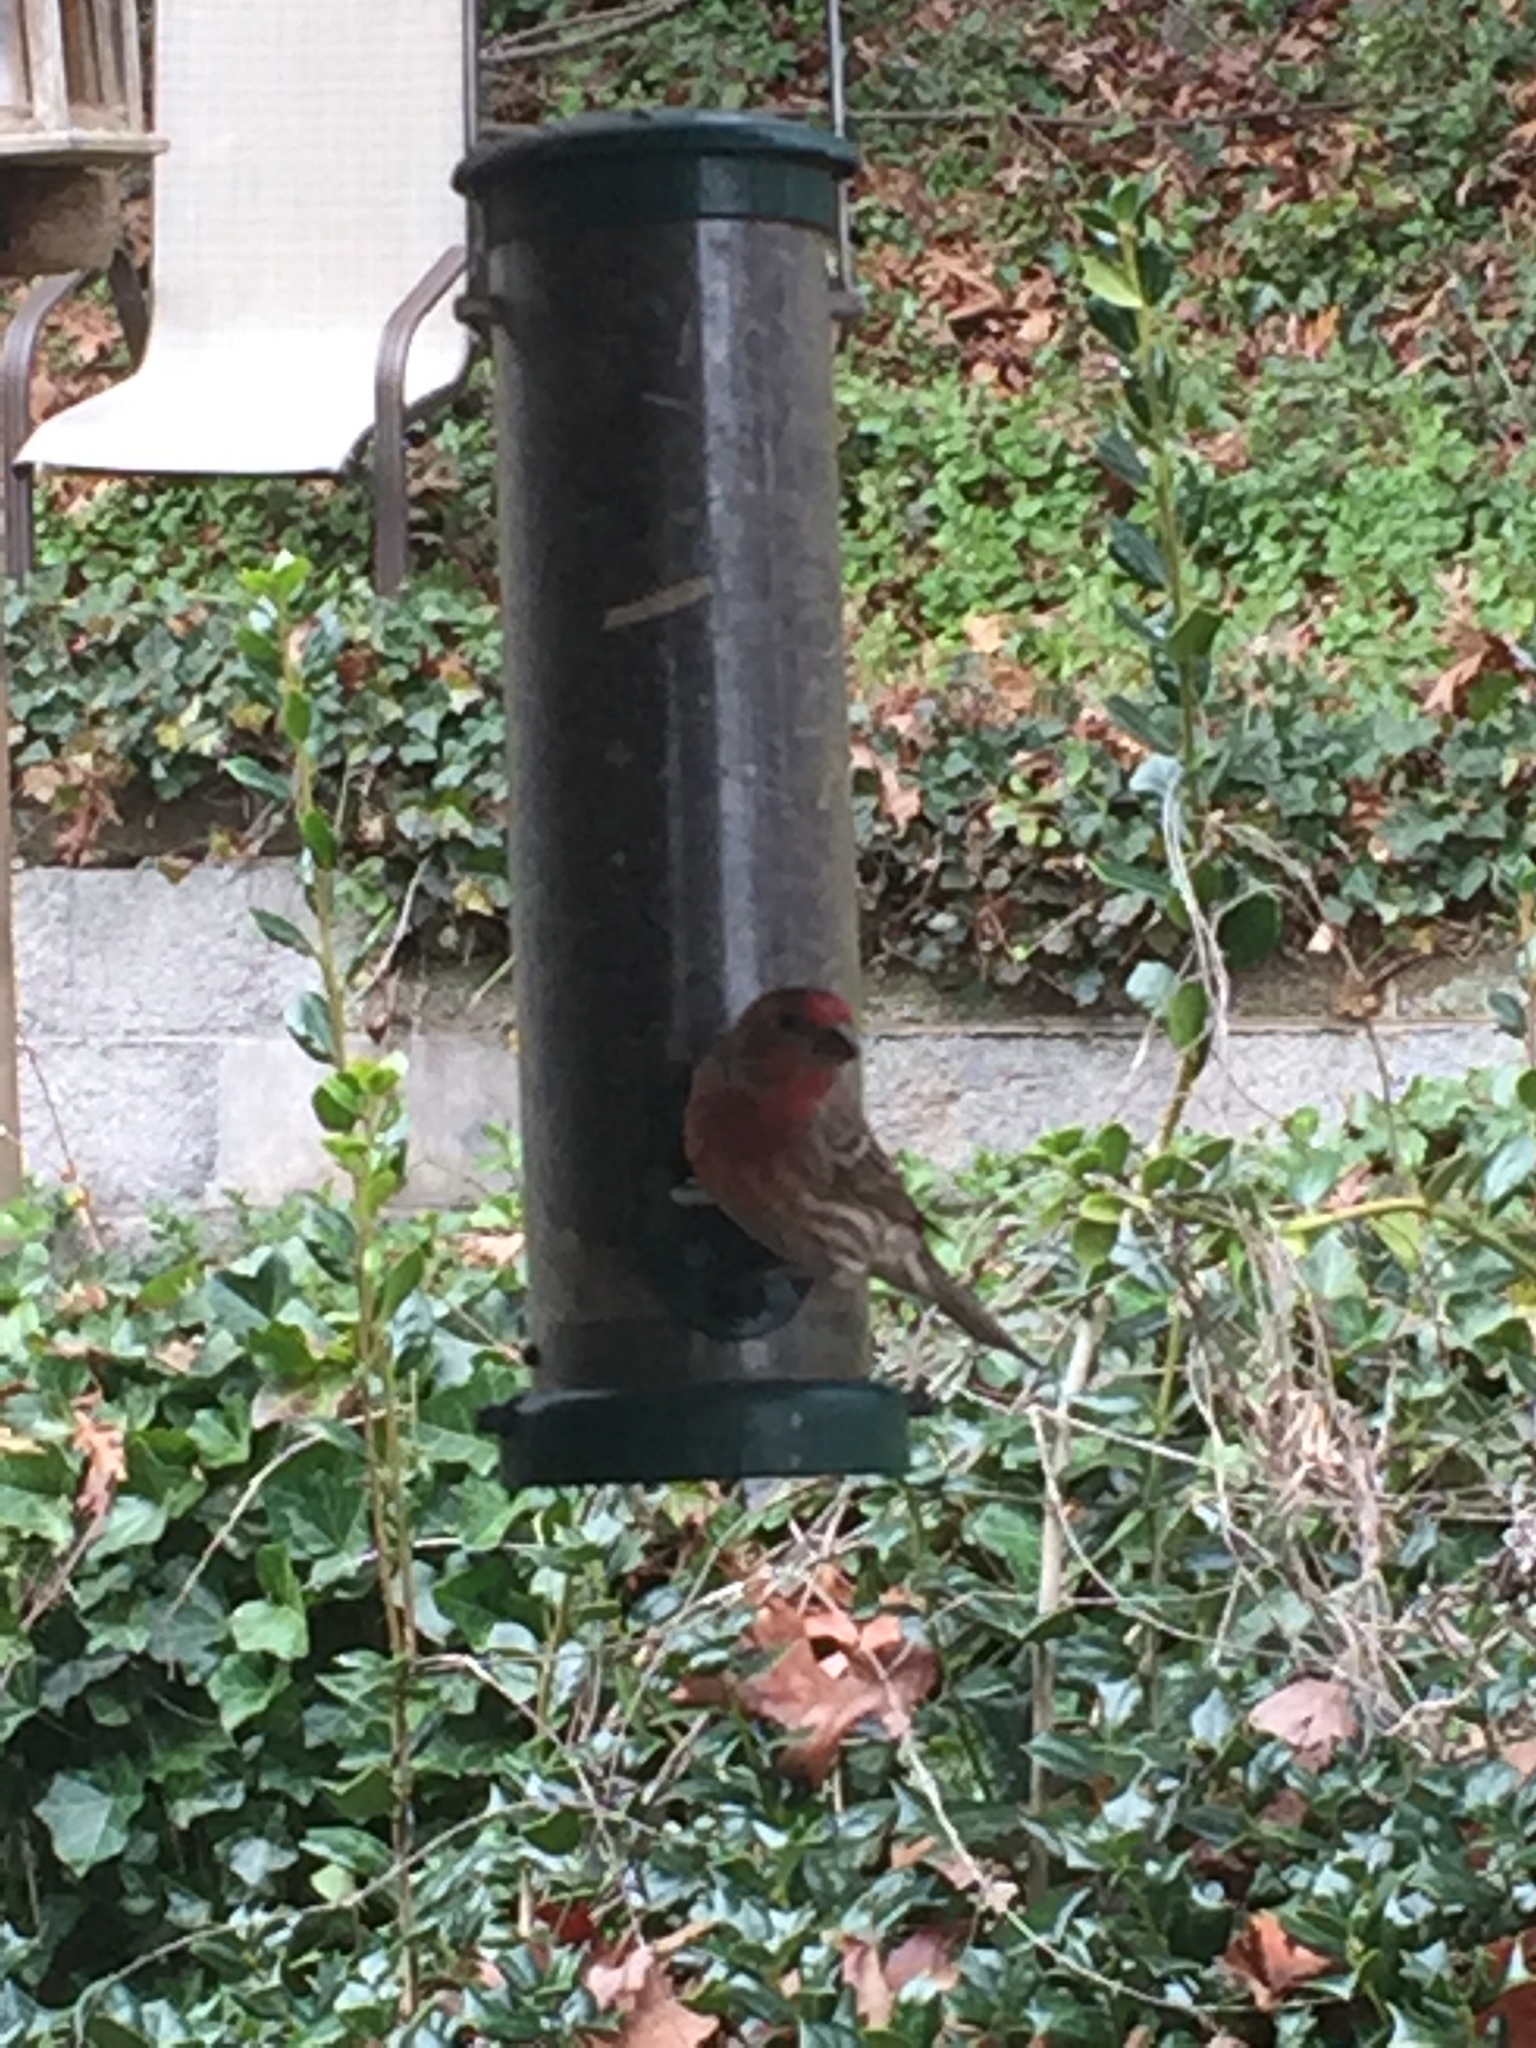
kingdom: Animalia
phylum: Chordata
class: Aves
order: Passeriformes
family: Fringillidae
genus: Haemorhous
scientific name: Haemorhous mexicanus
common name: House finch
